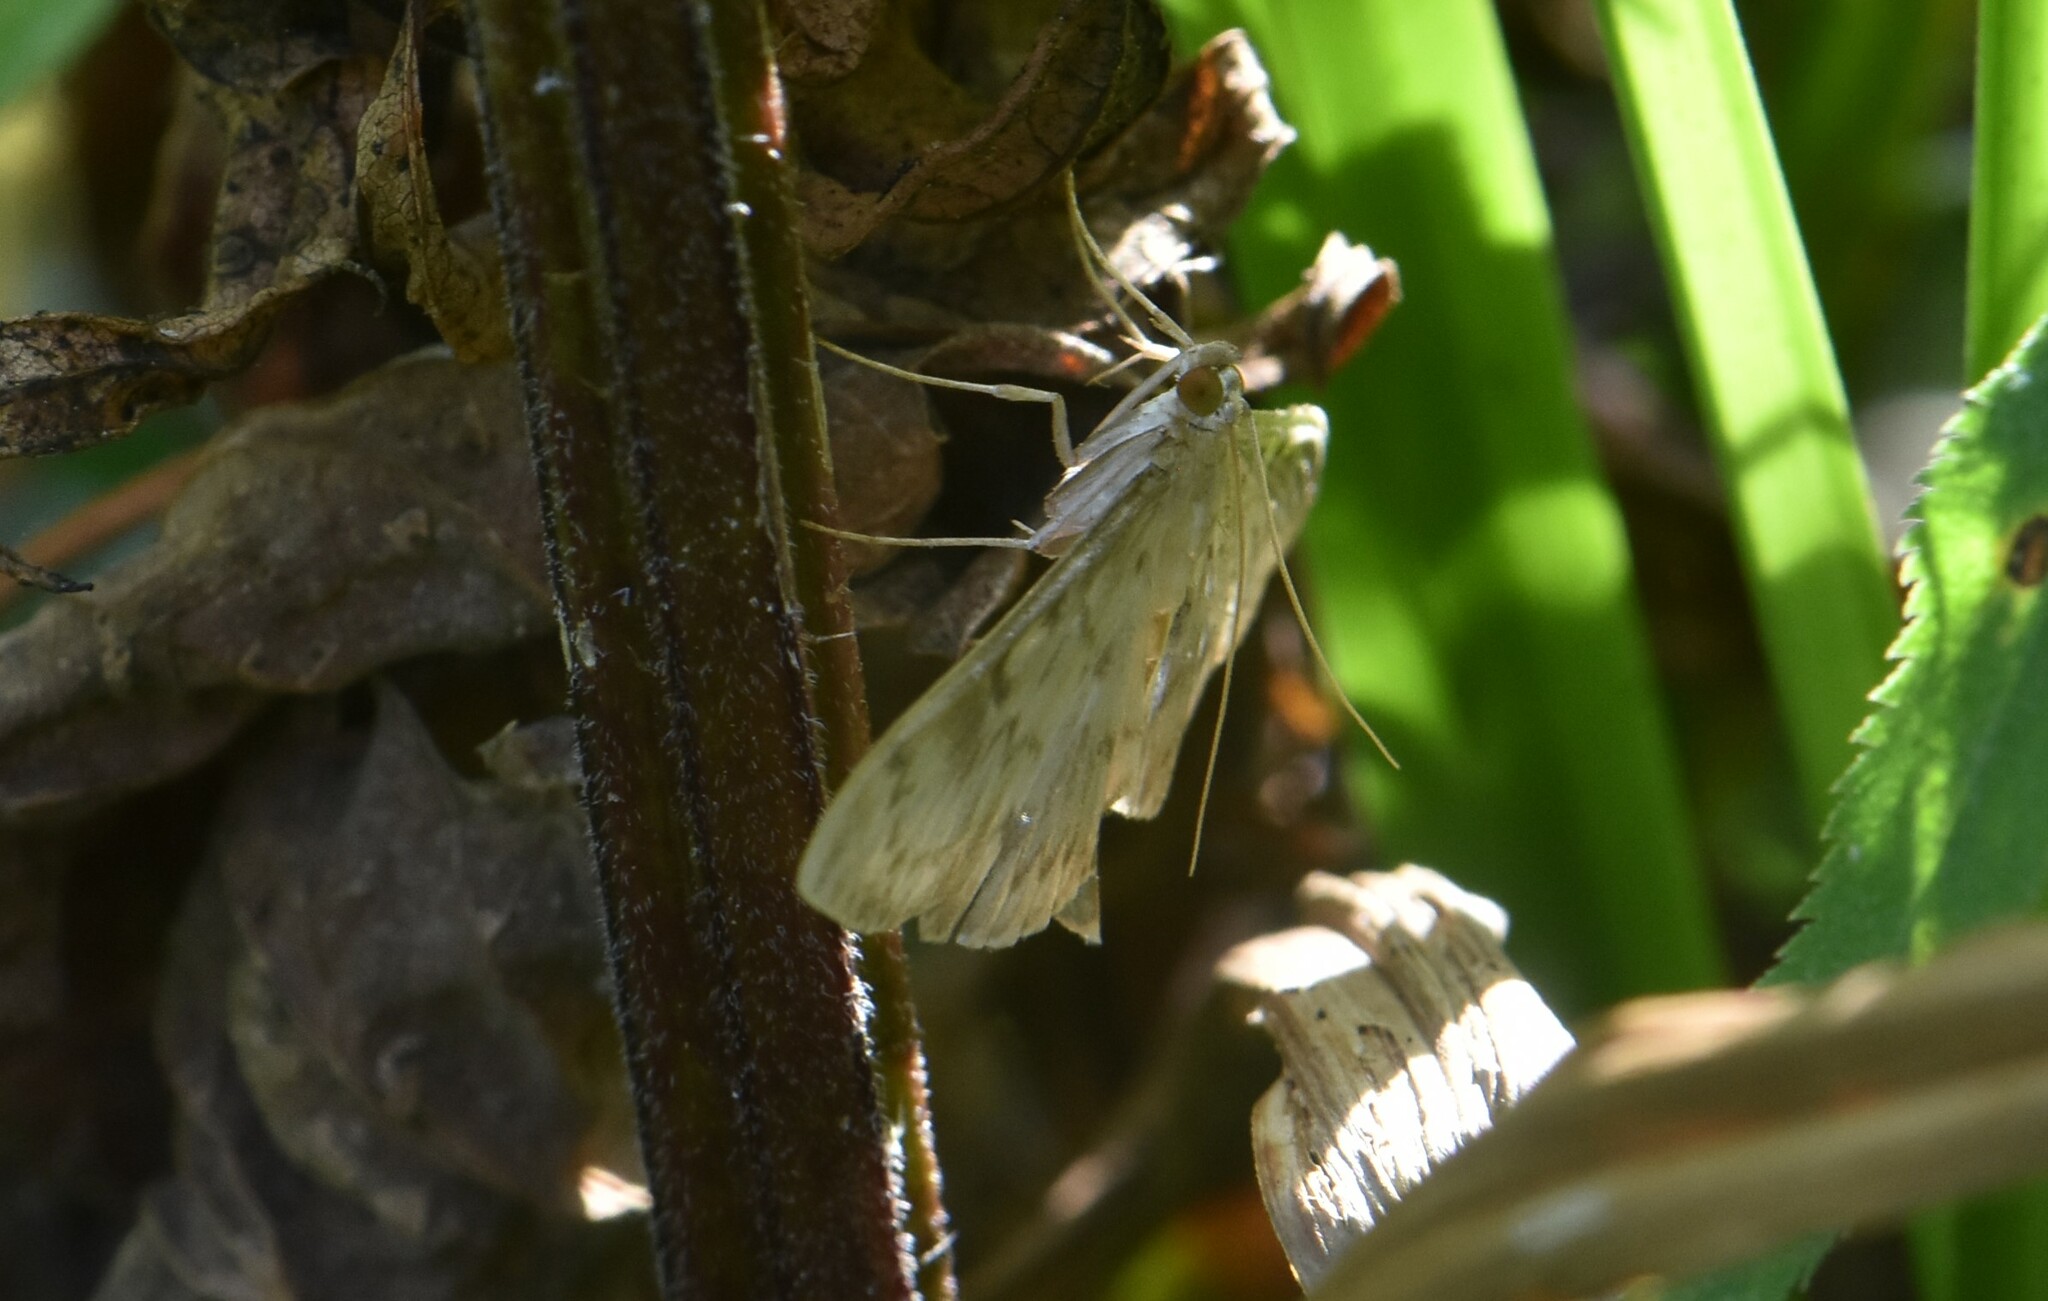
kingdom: Animalia
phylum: Arthropoda
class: Insecta
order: Lepidoptera
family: Crambidae
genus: Patania
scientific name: Patania ruralis
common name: Mother of pearl
